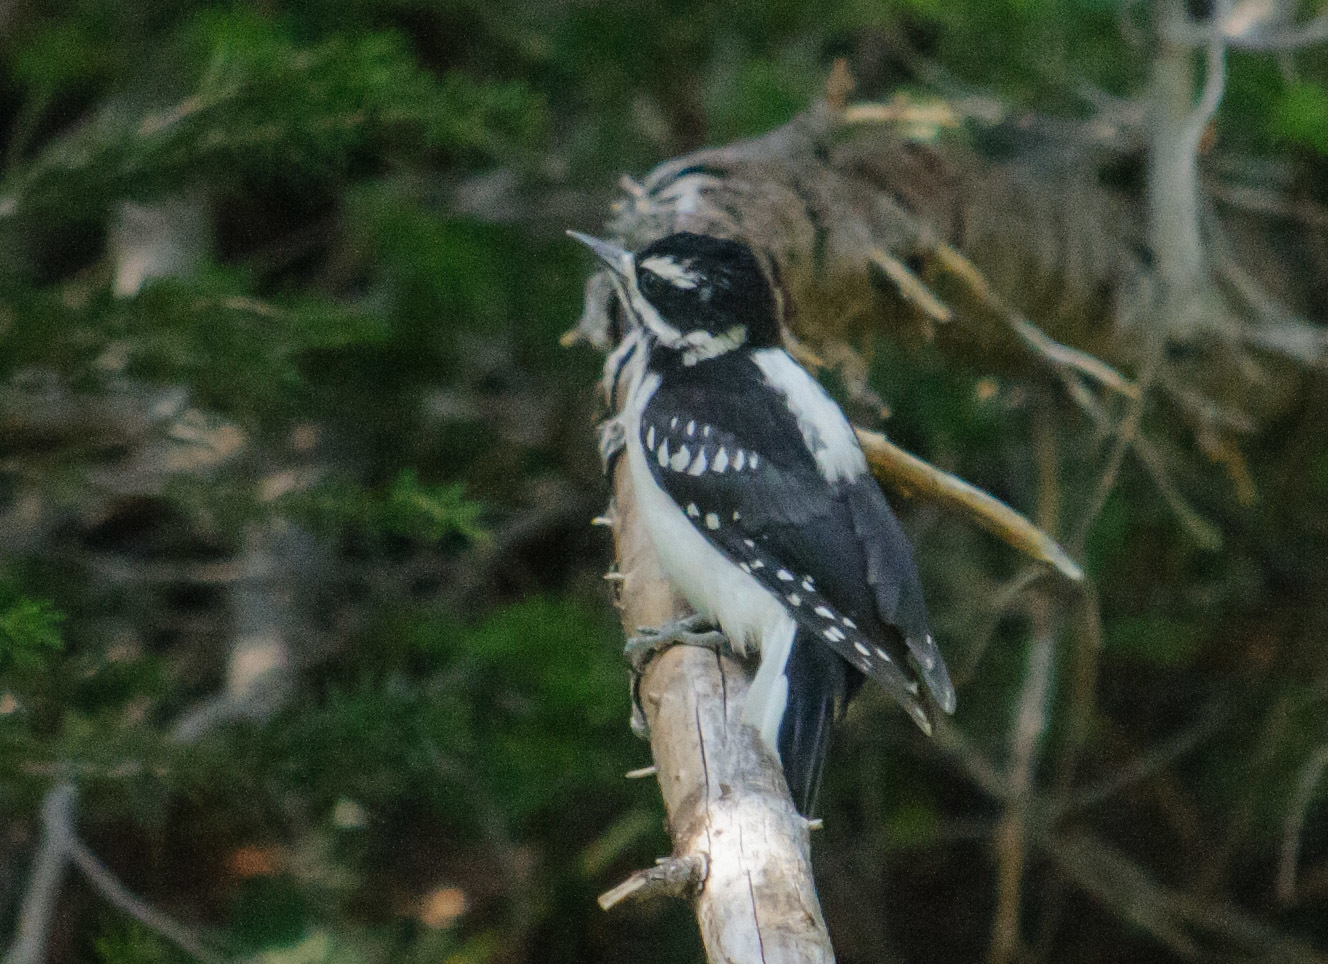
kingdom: Animalia
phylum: Chordata
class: Aves
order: Piciformes
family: Picidae
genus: Leuconotopicus
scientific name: Leuconotopicus villosus
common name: Hairy woodpecker
